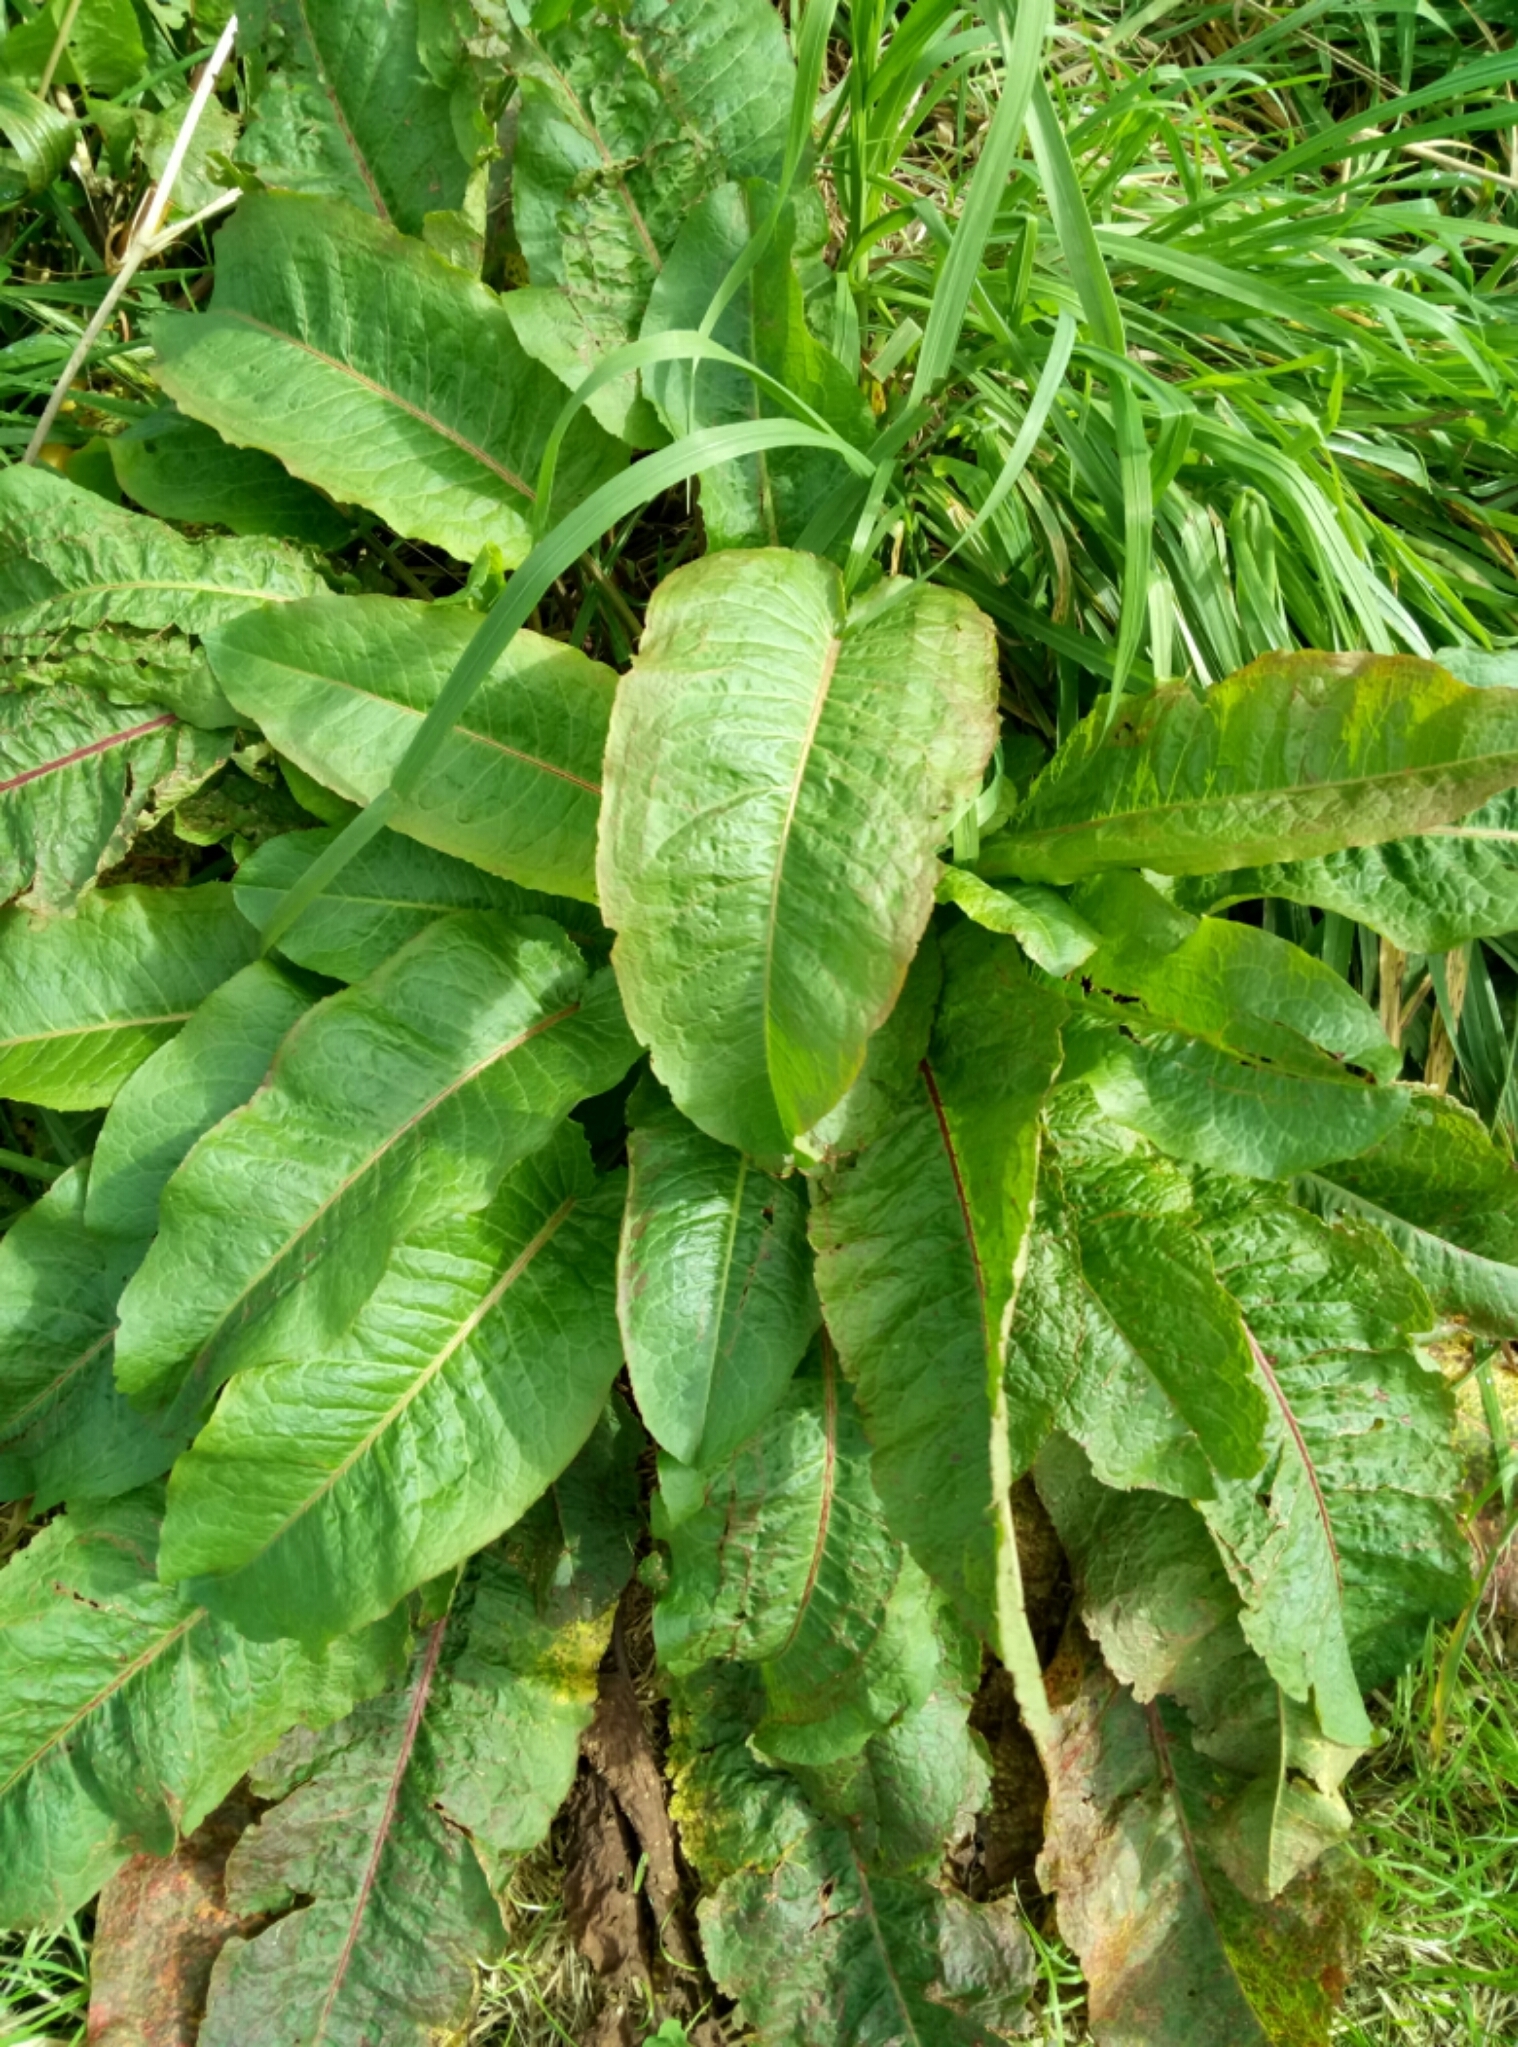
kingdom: Plantae
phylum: Tracheophyta
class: Magnoliopsida
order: Caryophyllales
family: Polygonaceae
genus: Rumex
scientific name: Rumex obtusifolius
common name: Bitter dock
